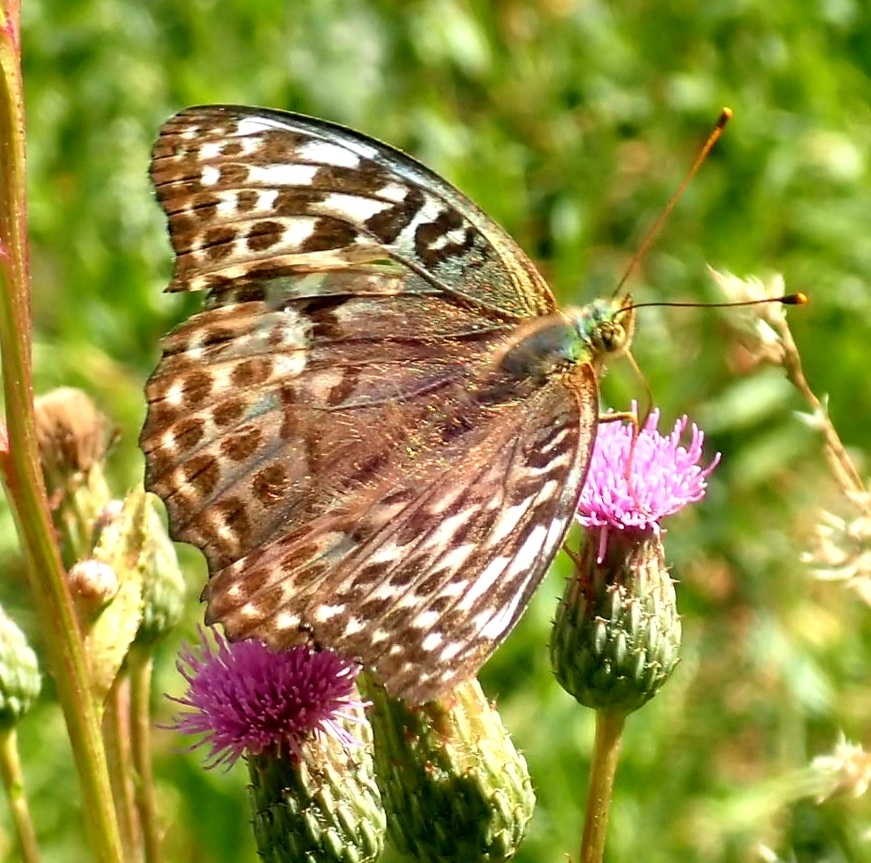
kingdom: Animalia
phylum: Arthropoda
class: Insecta
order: Lepidoptera
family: Nymphalidae
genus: Argynnis
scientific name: Argynnis paphia
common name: Silver-washed fritillary
